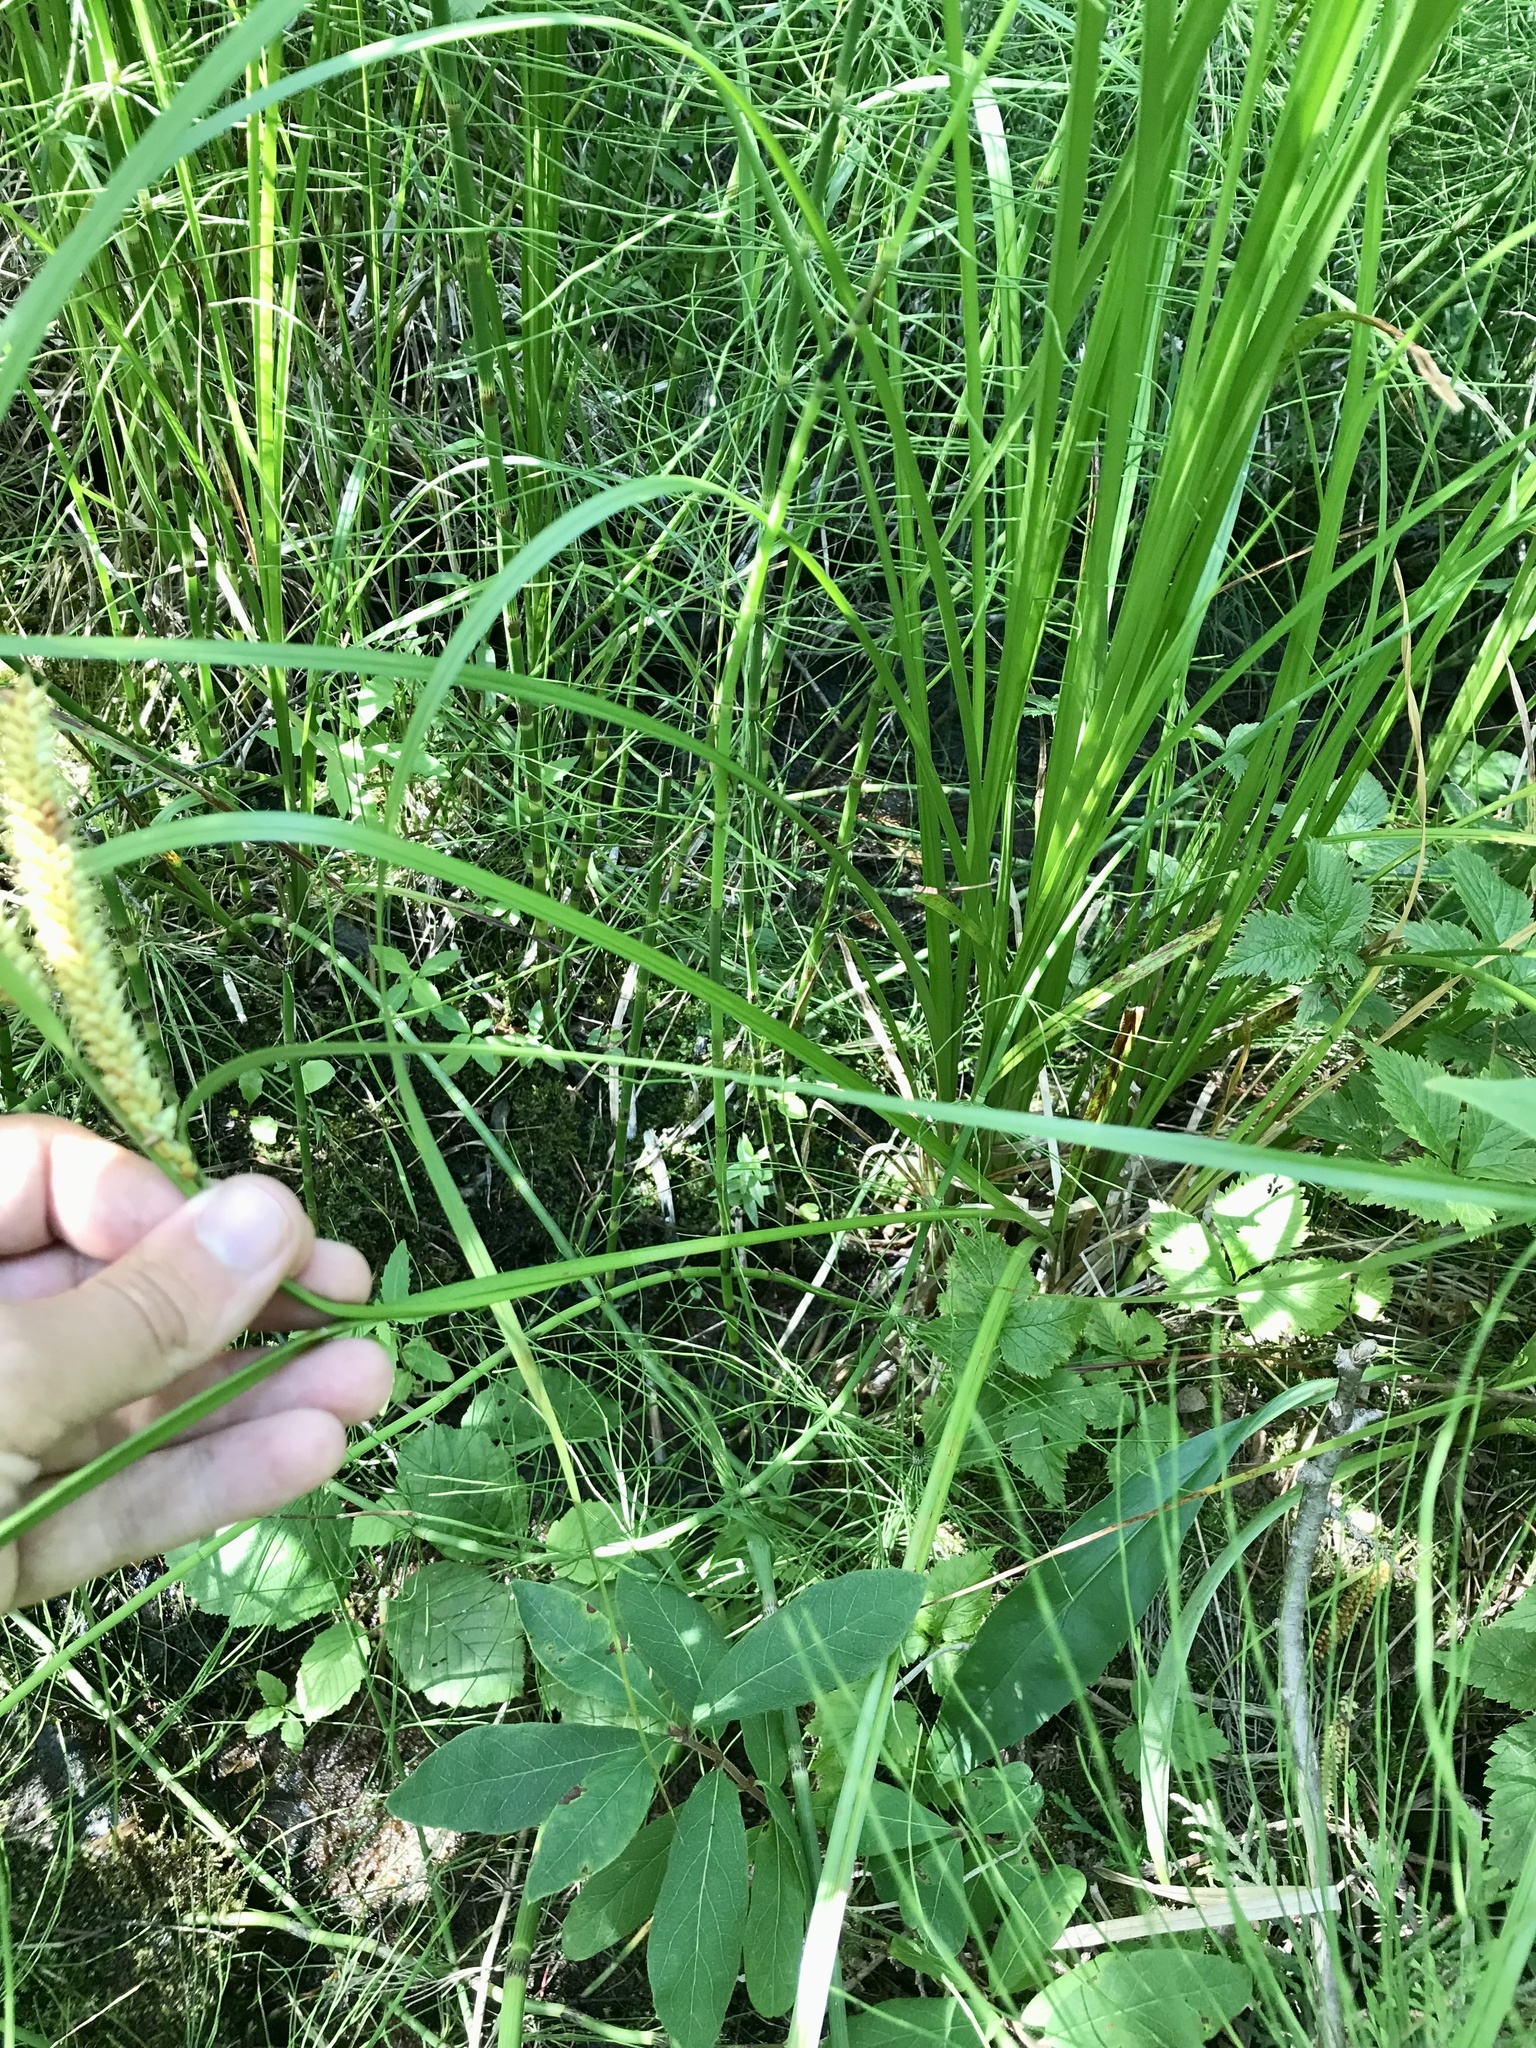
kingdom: Plantae
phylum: Tracheophyta
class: Liliopsida
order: Poales
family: Cyperaceae
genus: Carex
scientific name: Carex utriculata
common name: Beaked sedge
